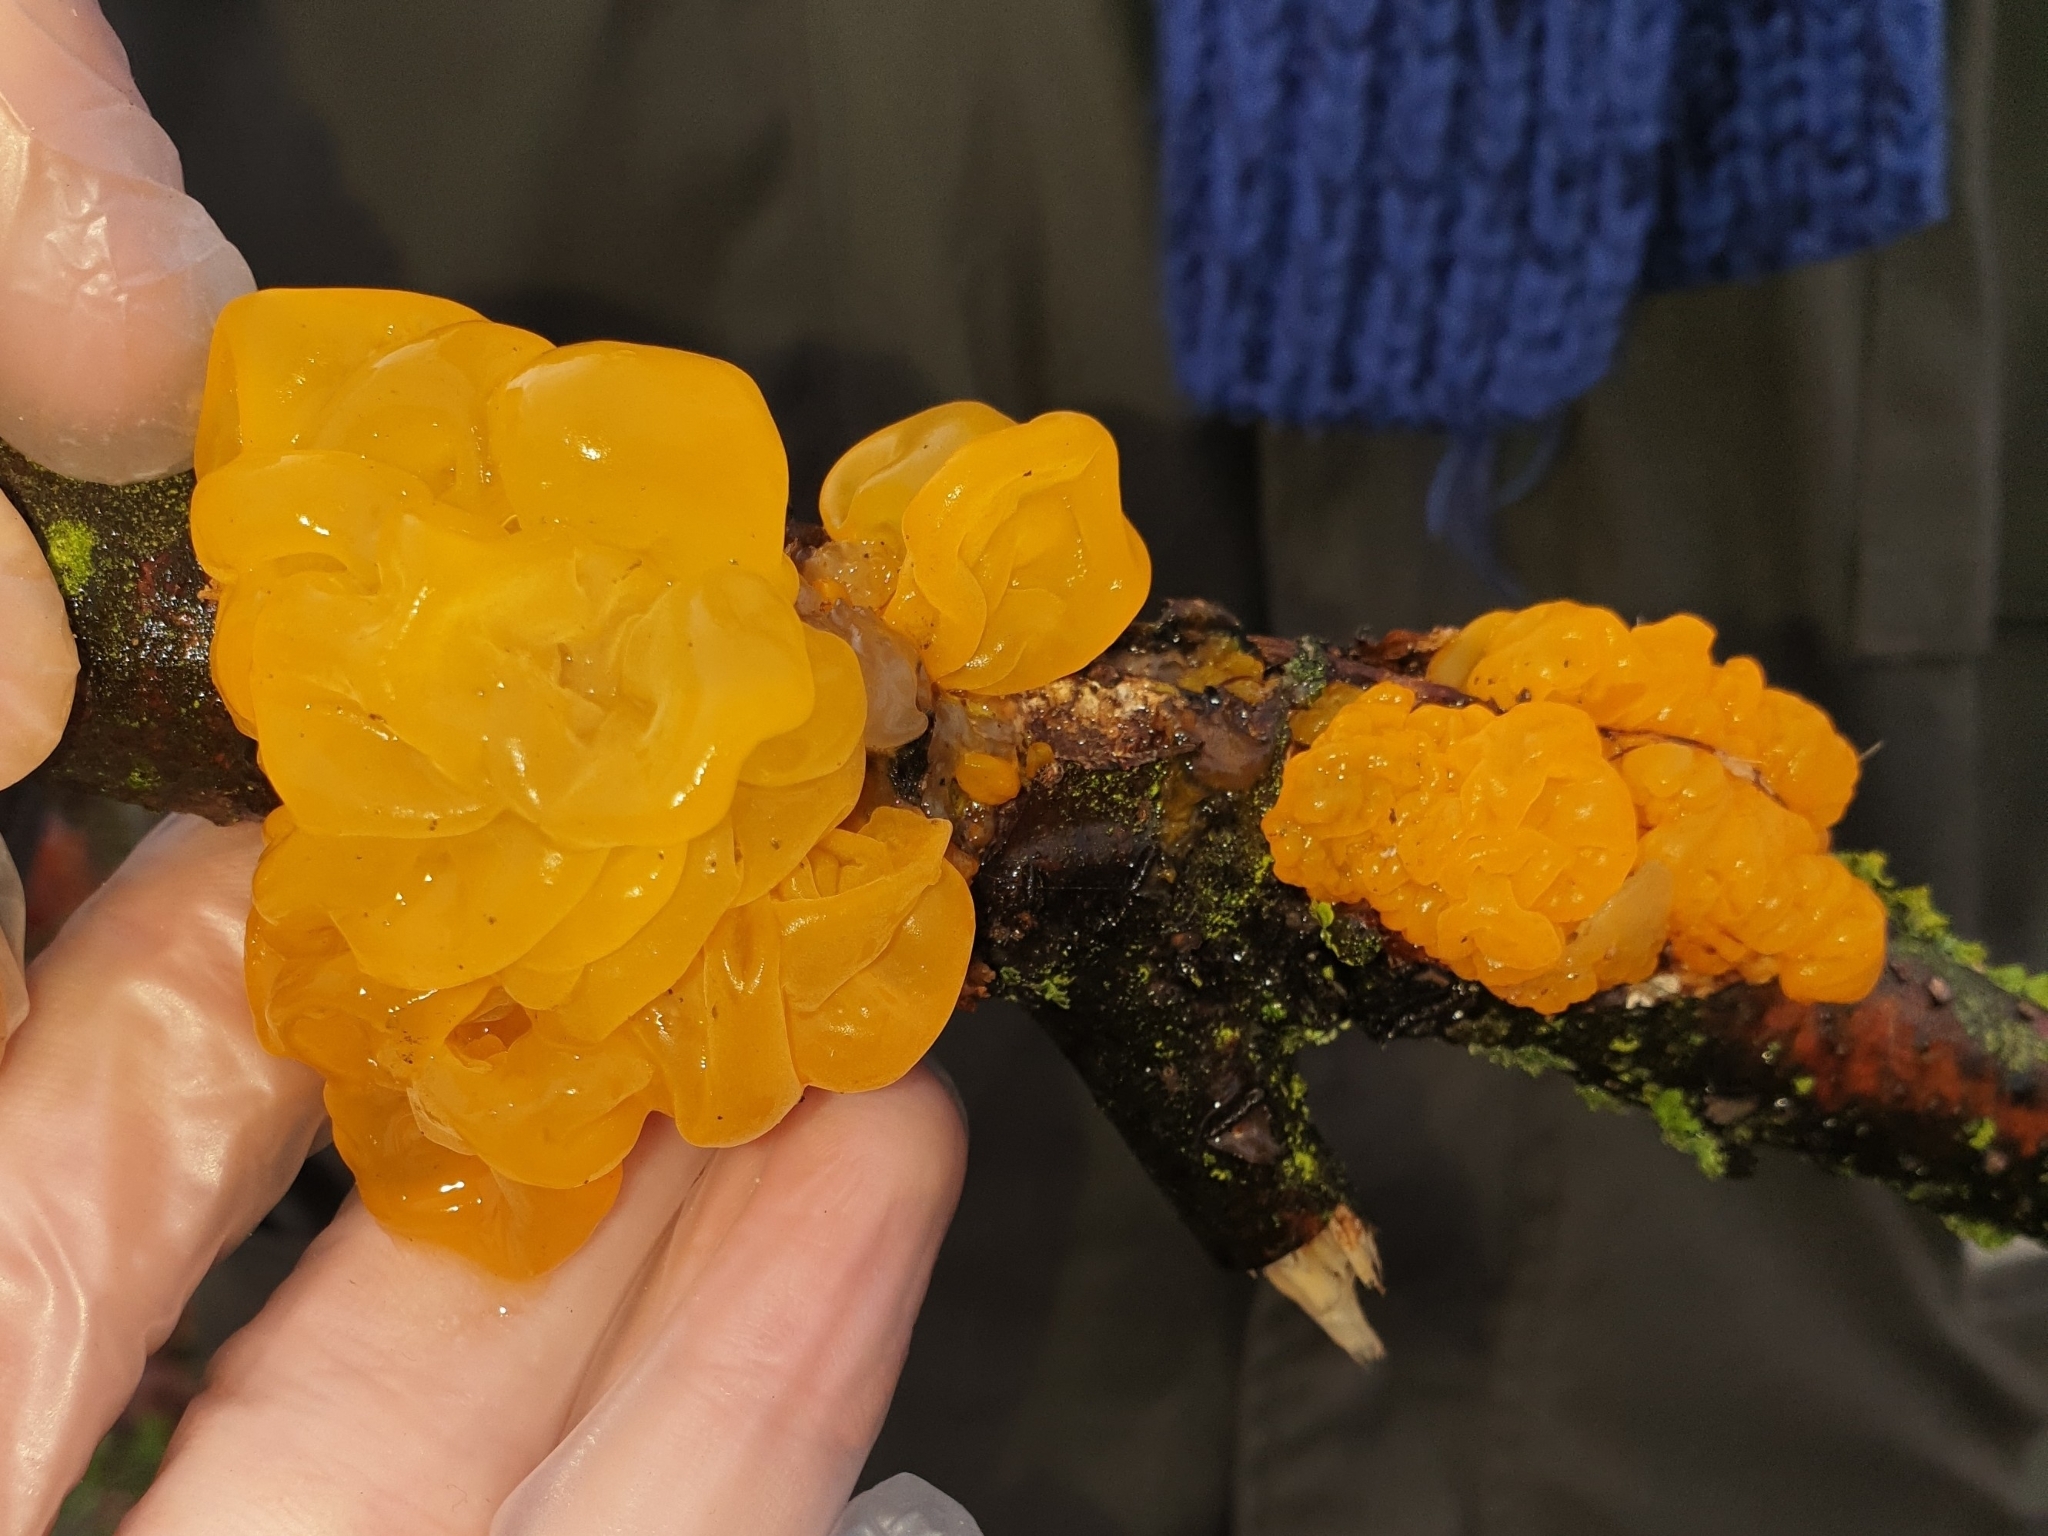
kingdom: Fungi
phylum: Basidiomycota
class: Tremellomycetes
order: Tremellales
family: Tremellaceae
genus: Tremella
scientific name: Tremella mesenterica
